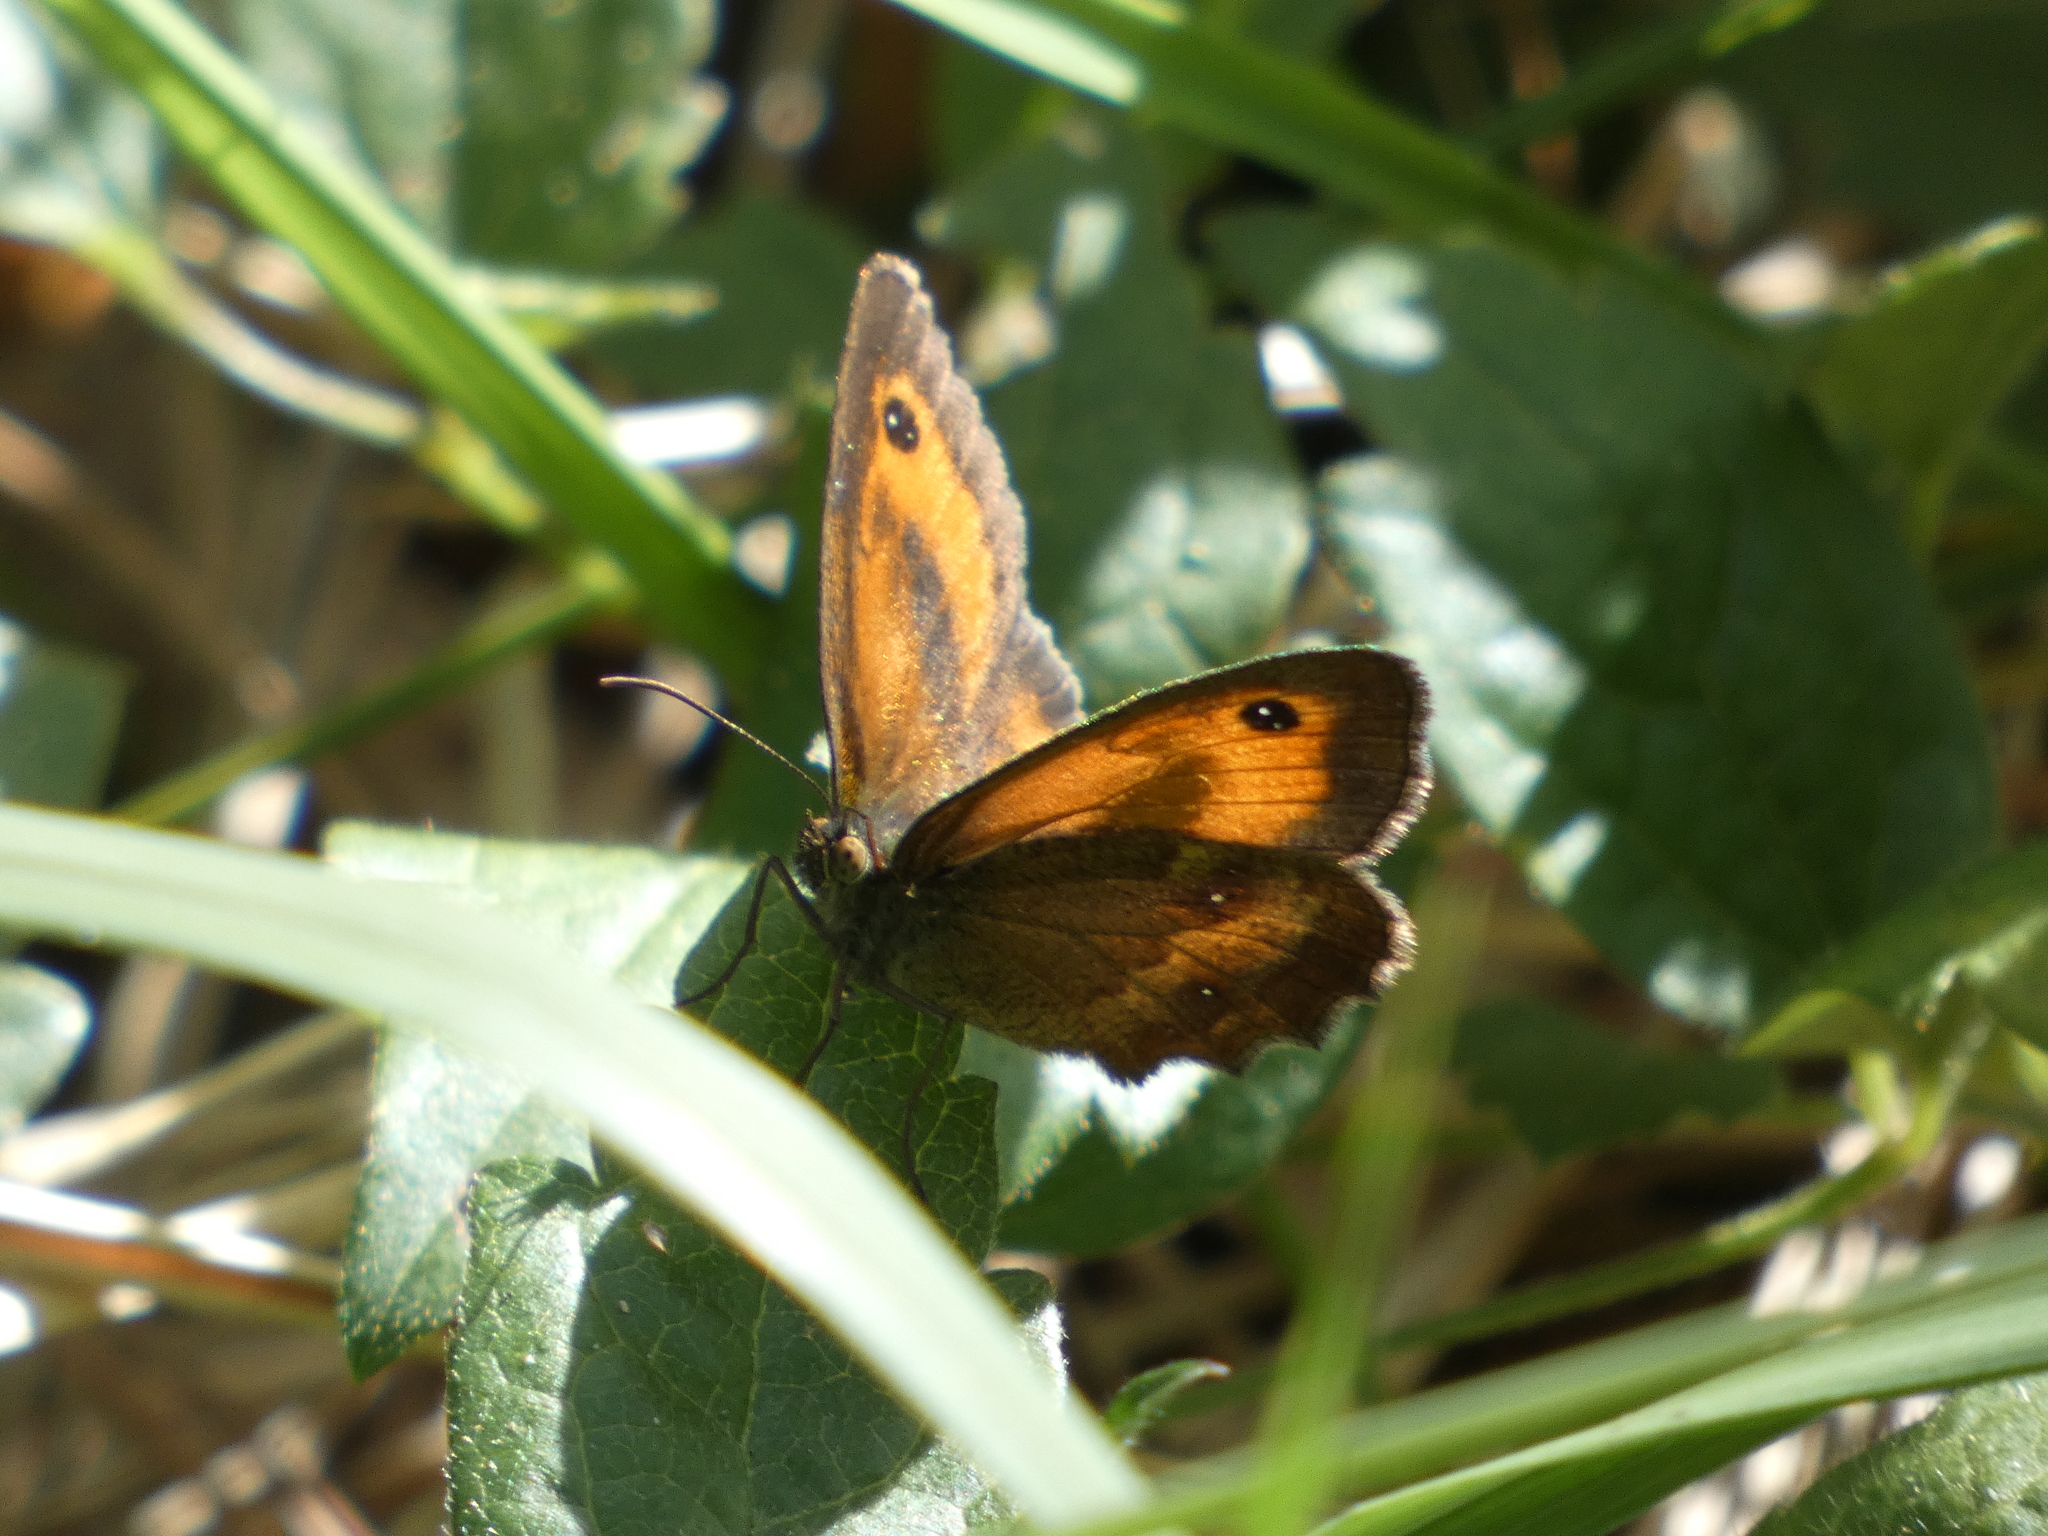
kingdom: Animalia
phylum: Arthropoda
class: Insecta
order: Lepidoptera
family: Nymphalidae
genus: Pyronia
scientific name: Pyronia tithonus
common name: Gatekeeper
